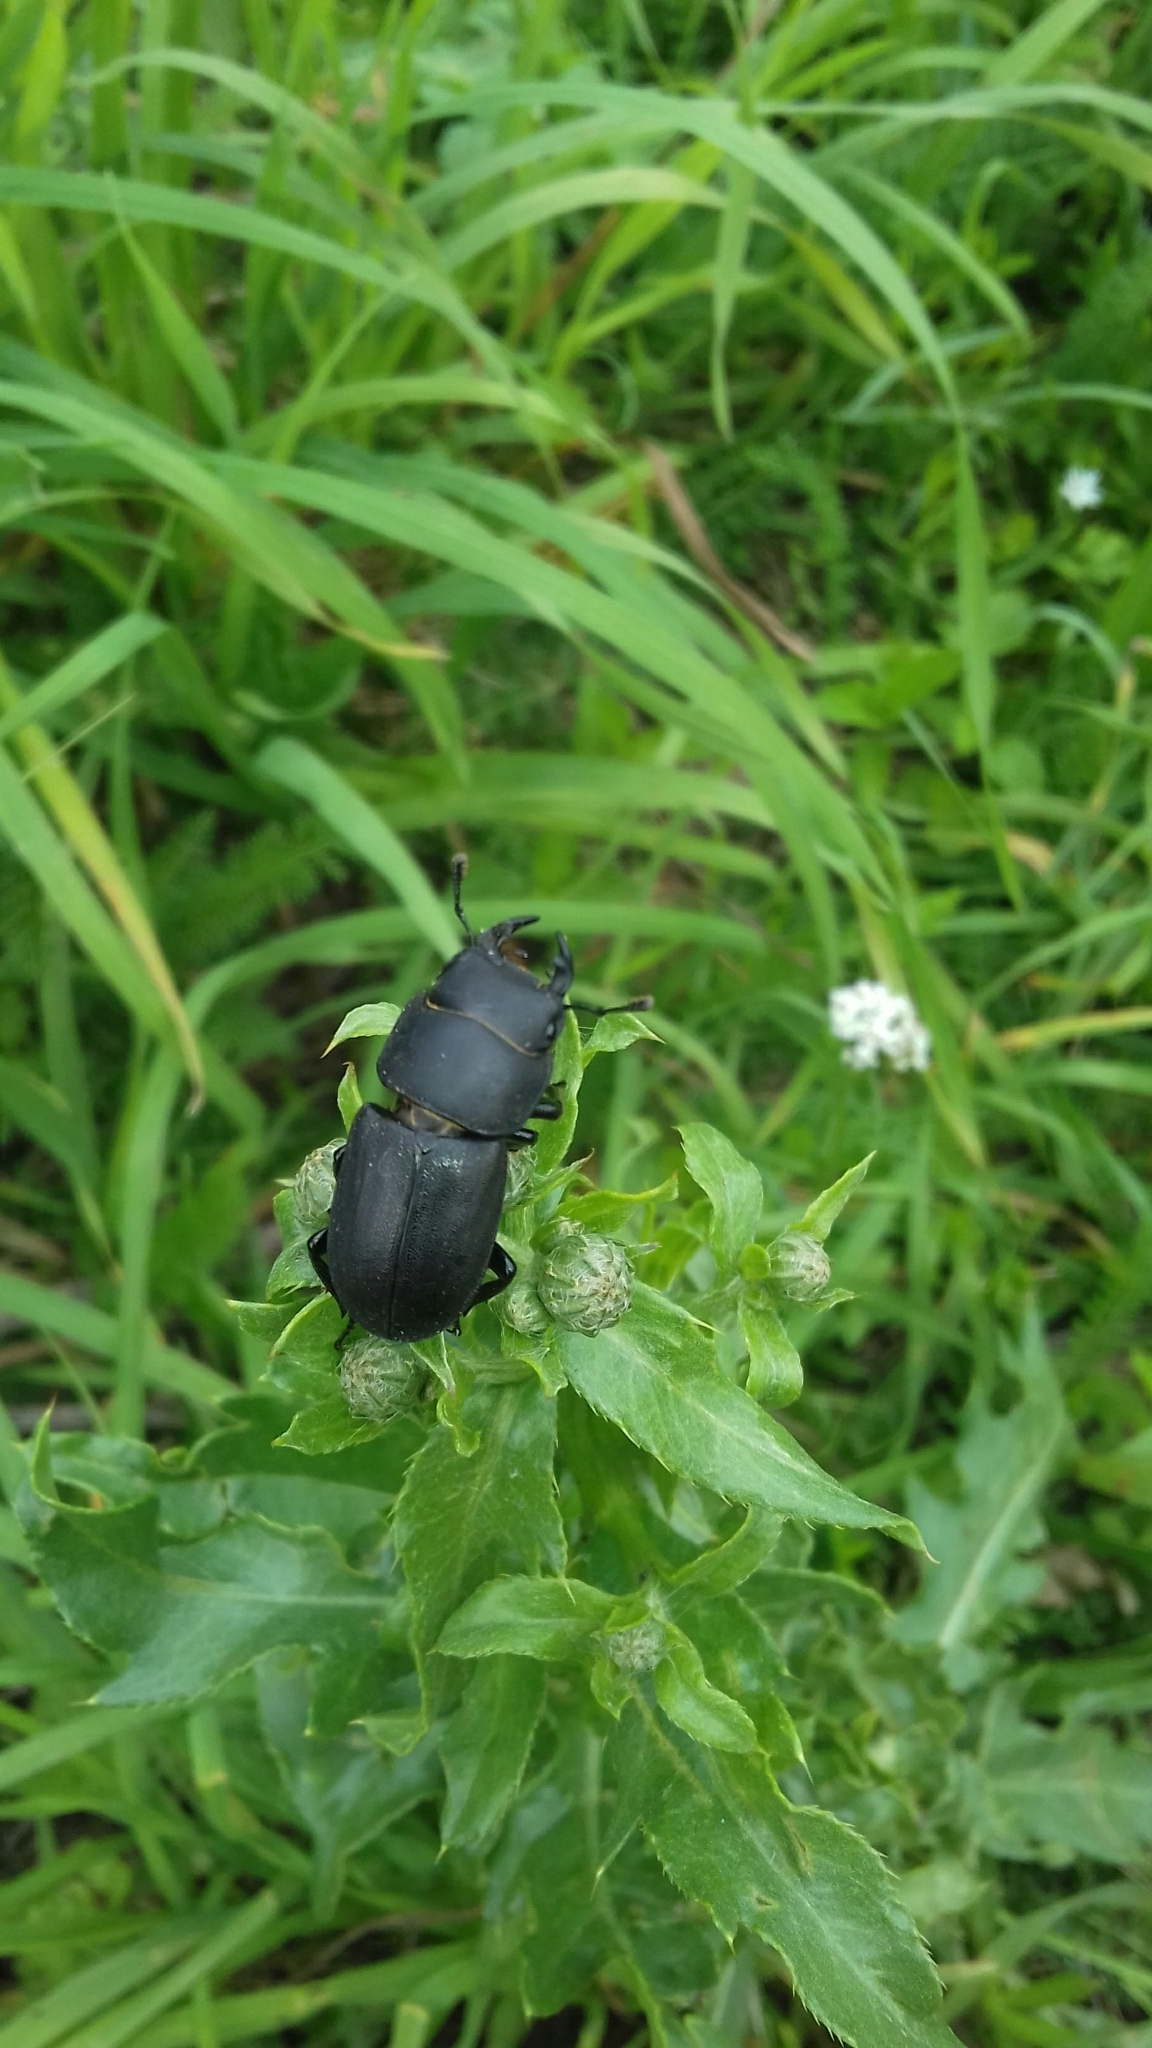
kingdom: Animalia
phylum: Arthropoda
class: Insecta
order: Coleoptera
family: Lucanidae
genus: Dorcus
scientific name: Dorcus parallelipipedus
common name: Lesser stag beetle
